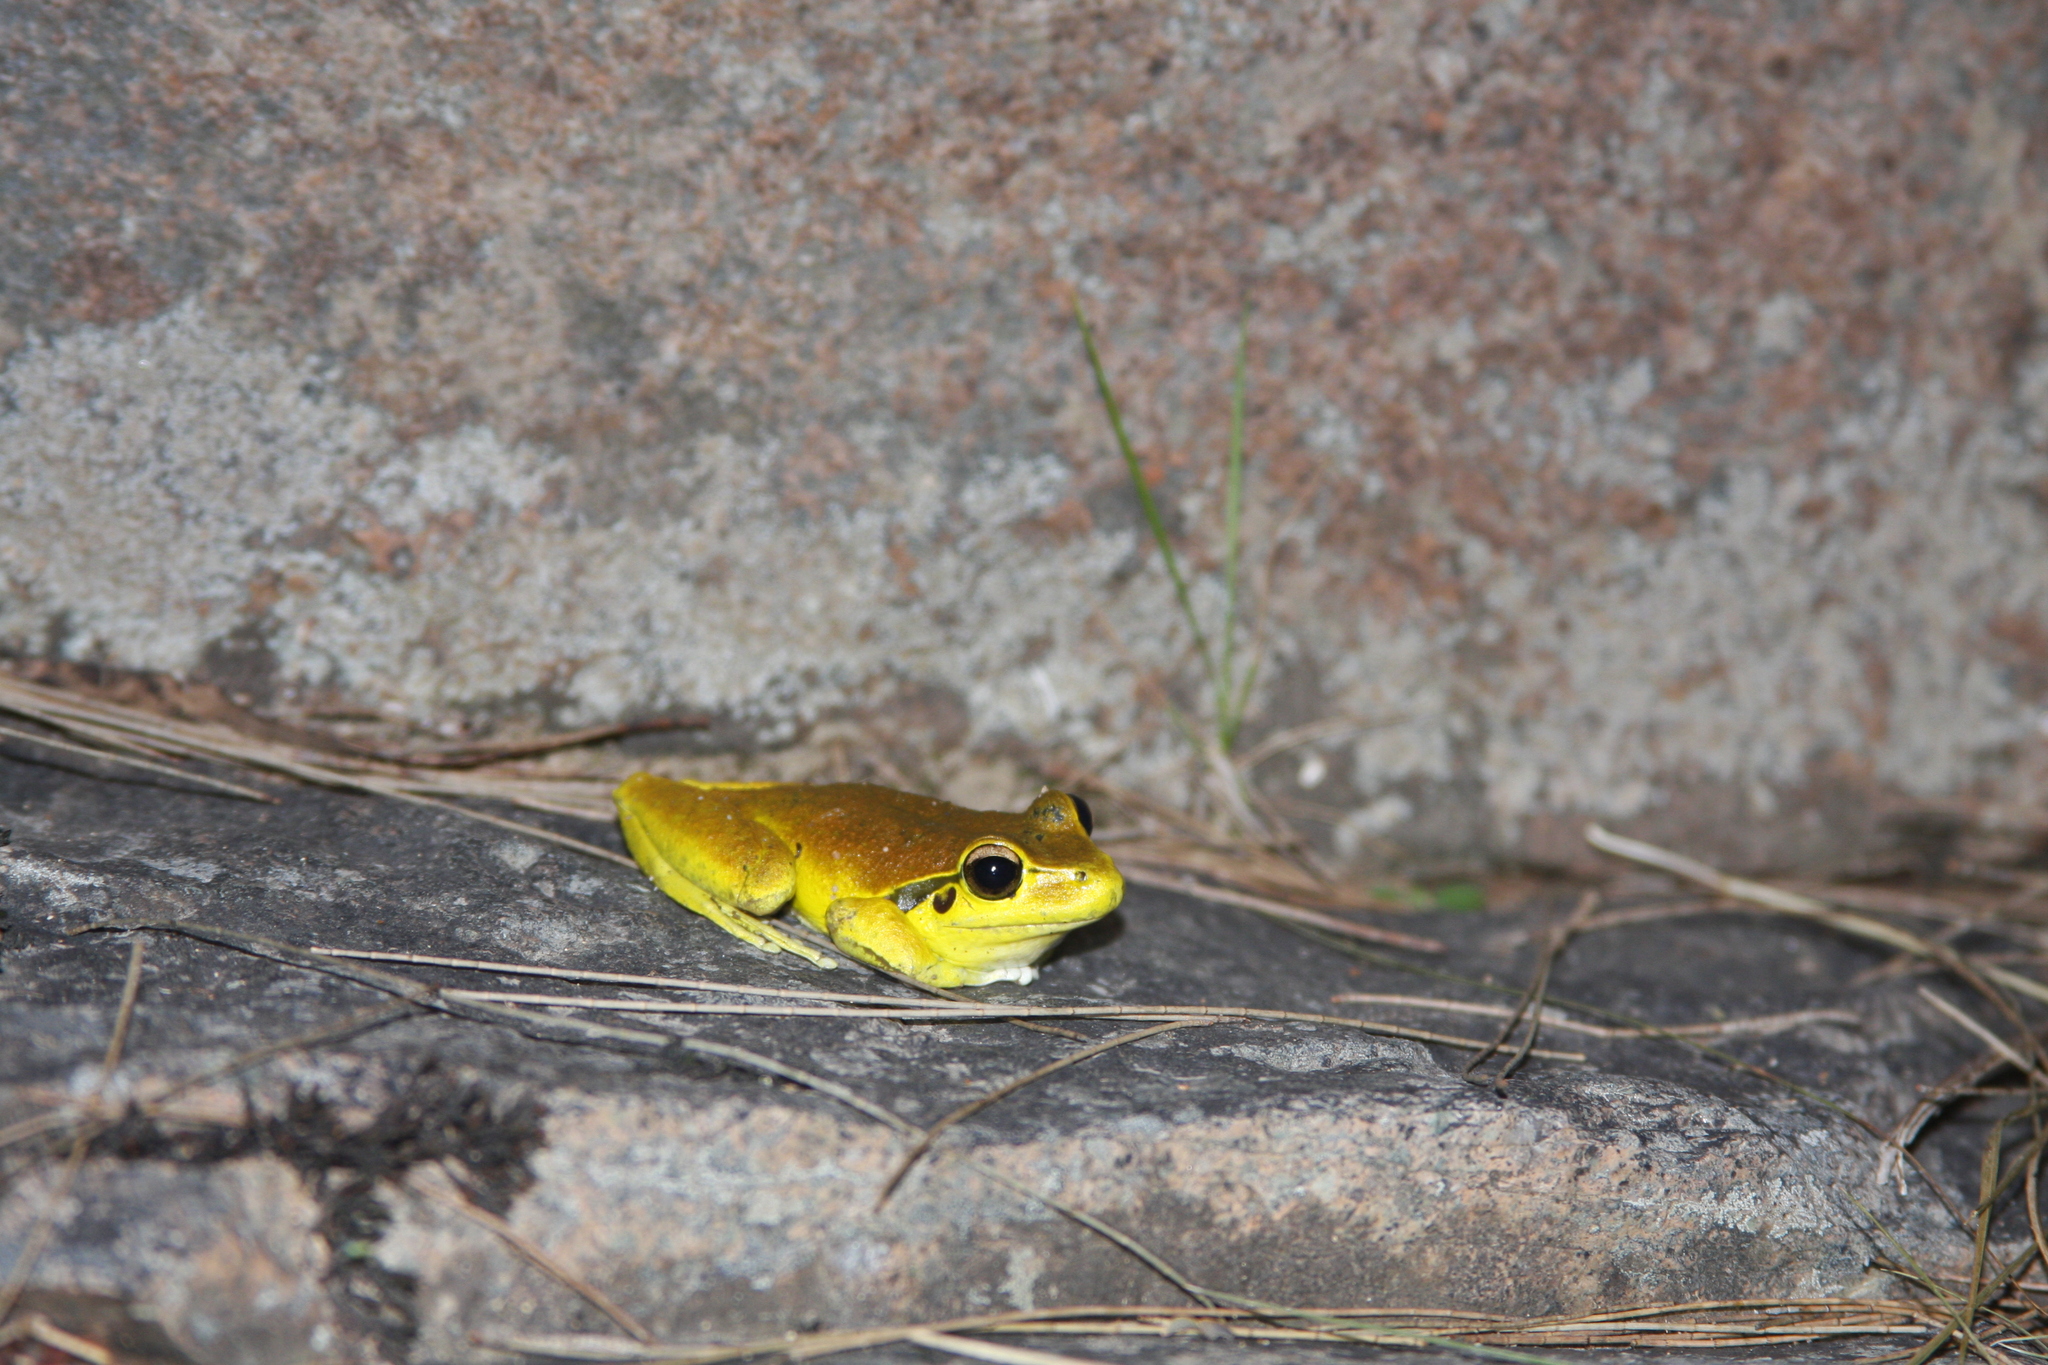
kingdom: Animalia
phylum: Chordata
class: Amphibia
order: Anura
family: Pelodryadidae
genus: Ranoidea
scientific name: Ranoidea lesueurii
